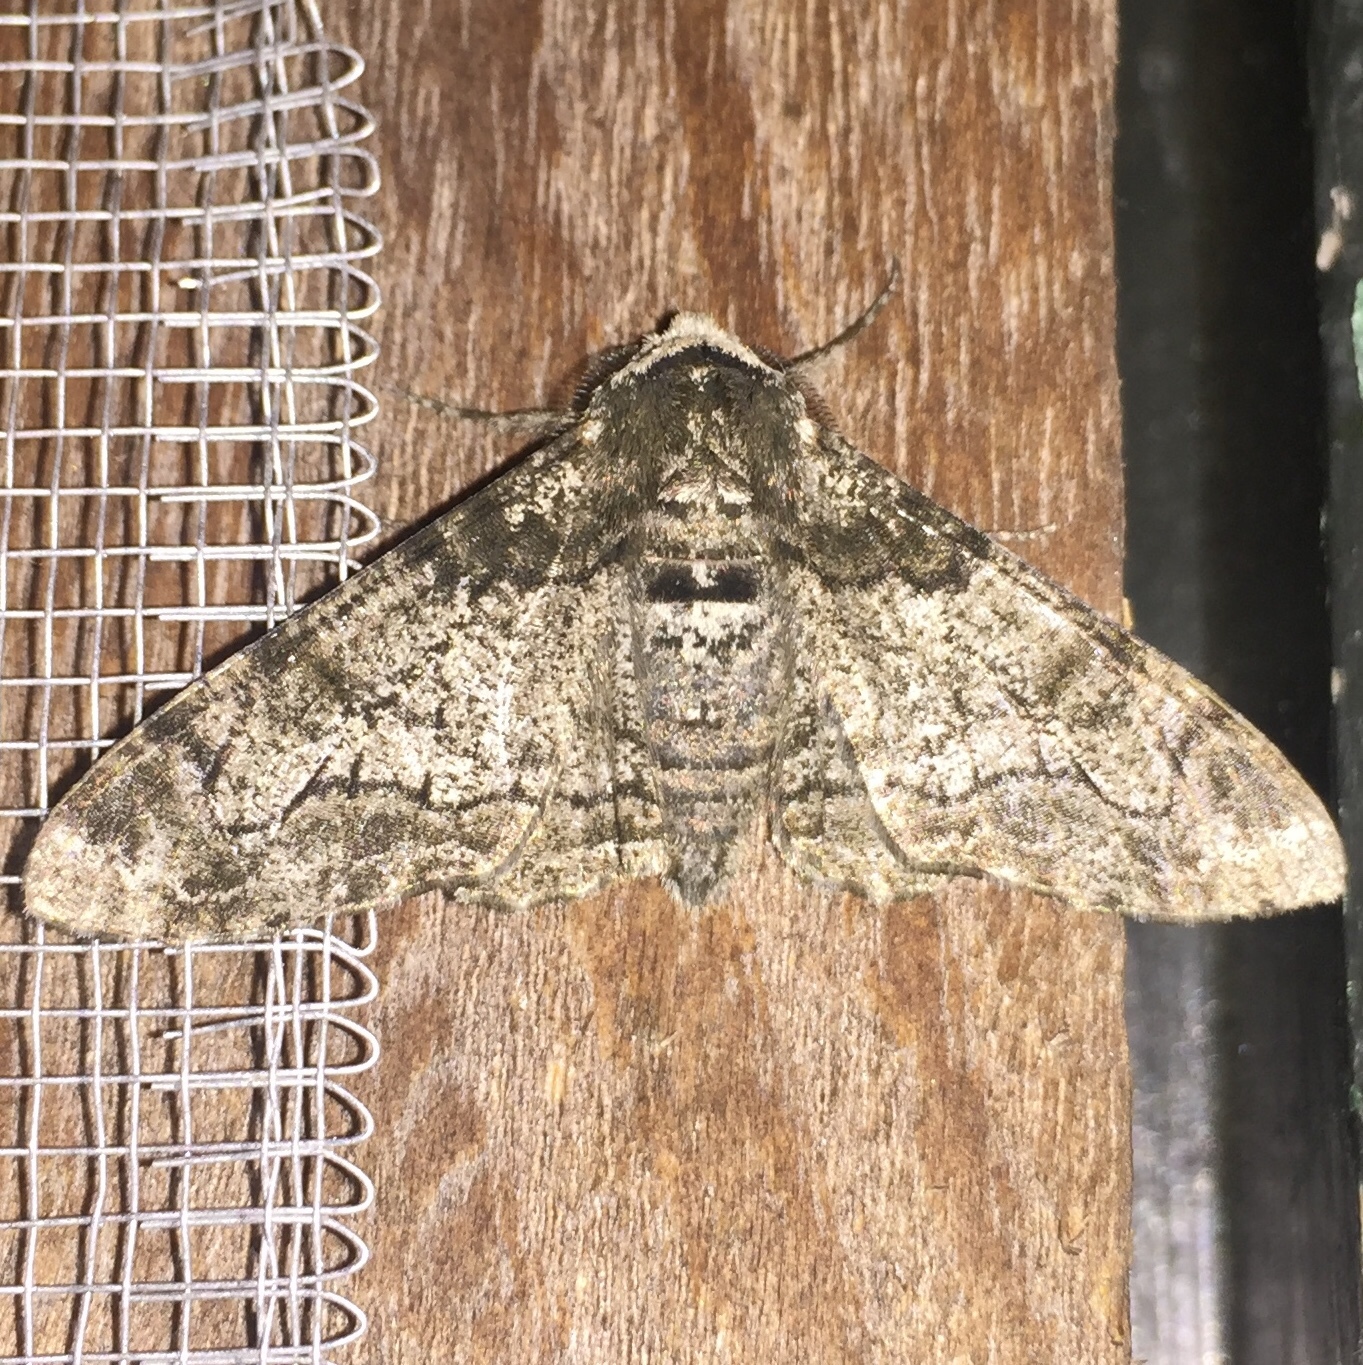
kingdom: Animalia
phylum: Arthropoda
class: Insecta
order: Lepidoptera
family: Geometridae
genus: Biston
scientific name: Biston betularia
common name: Peppered moth
